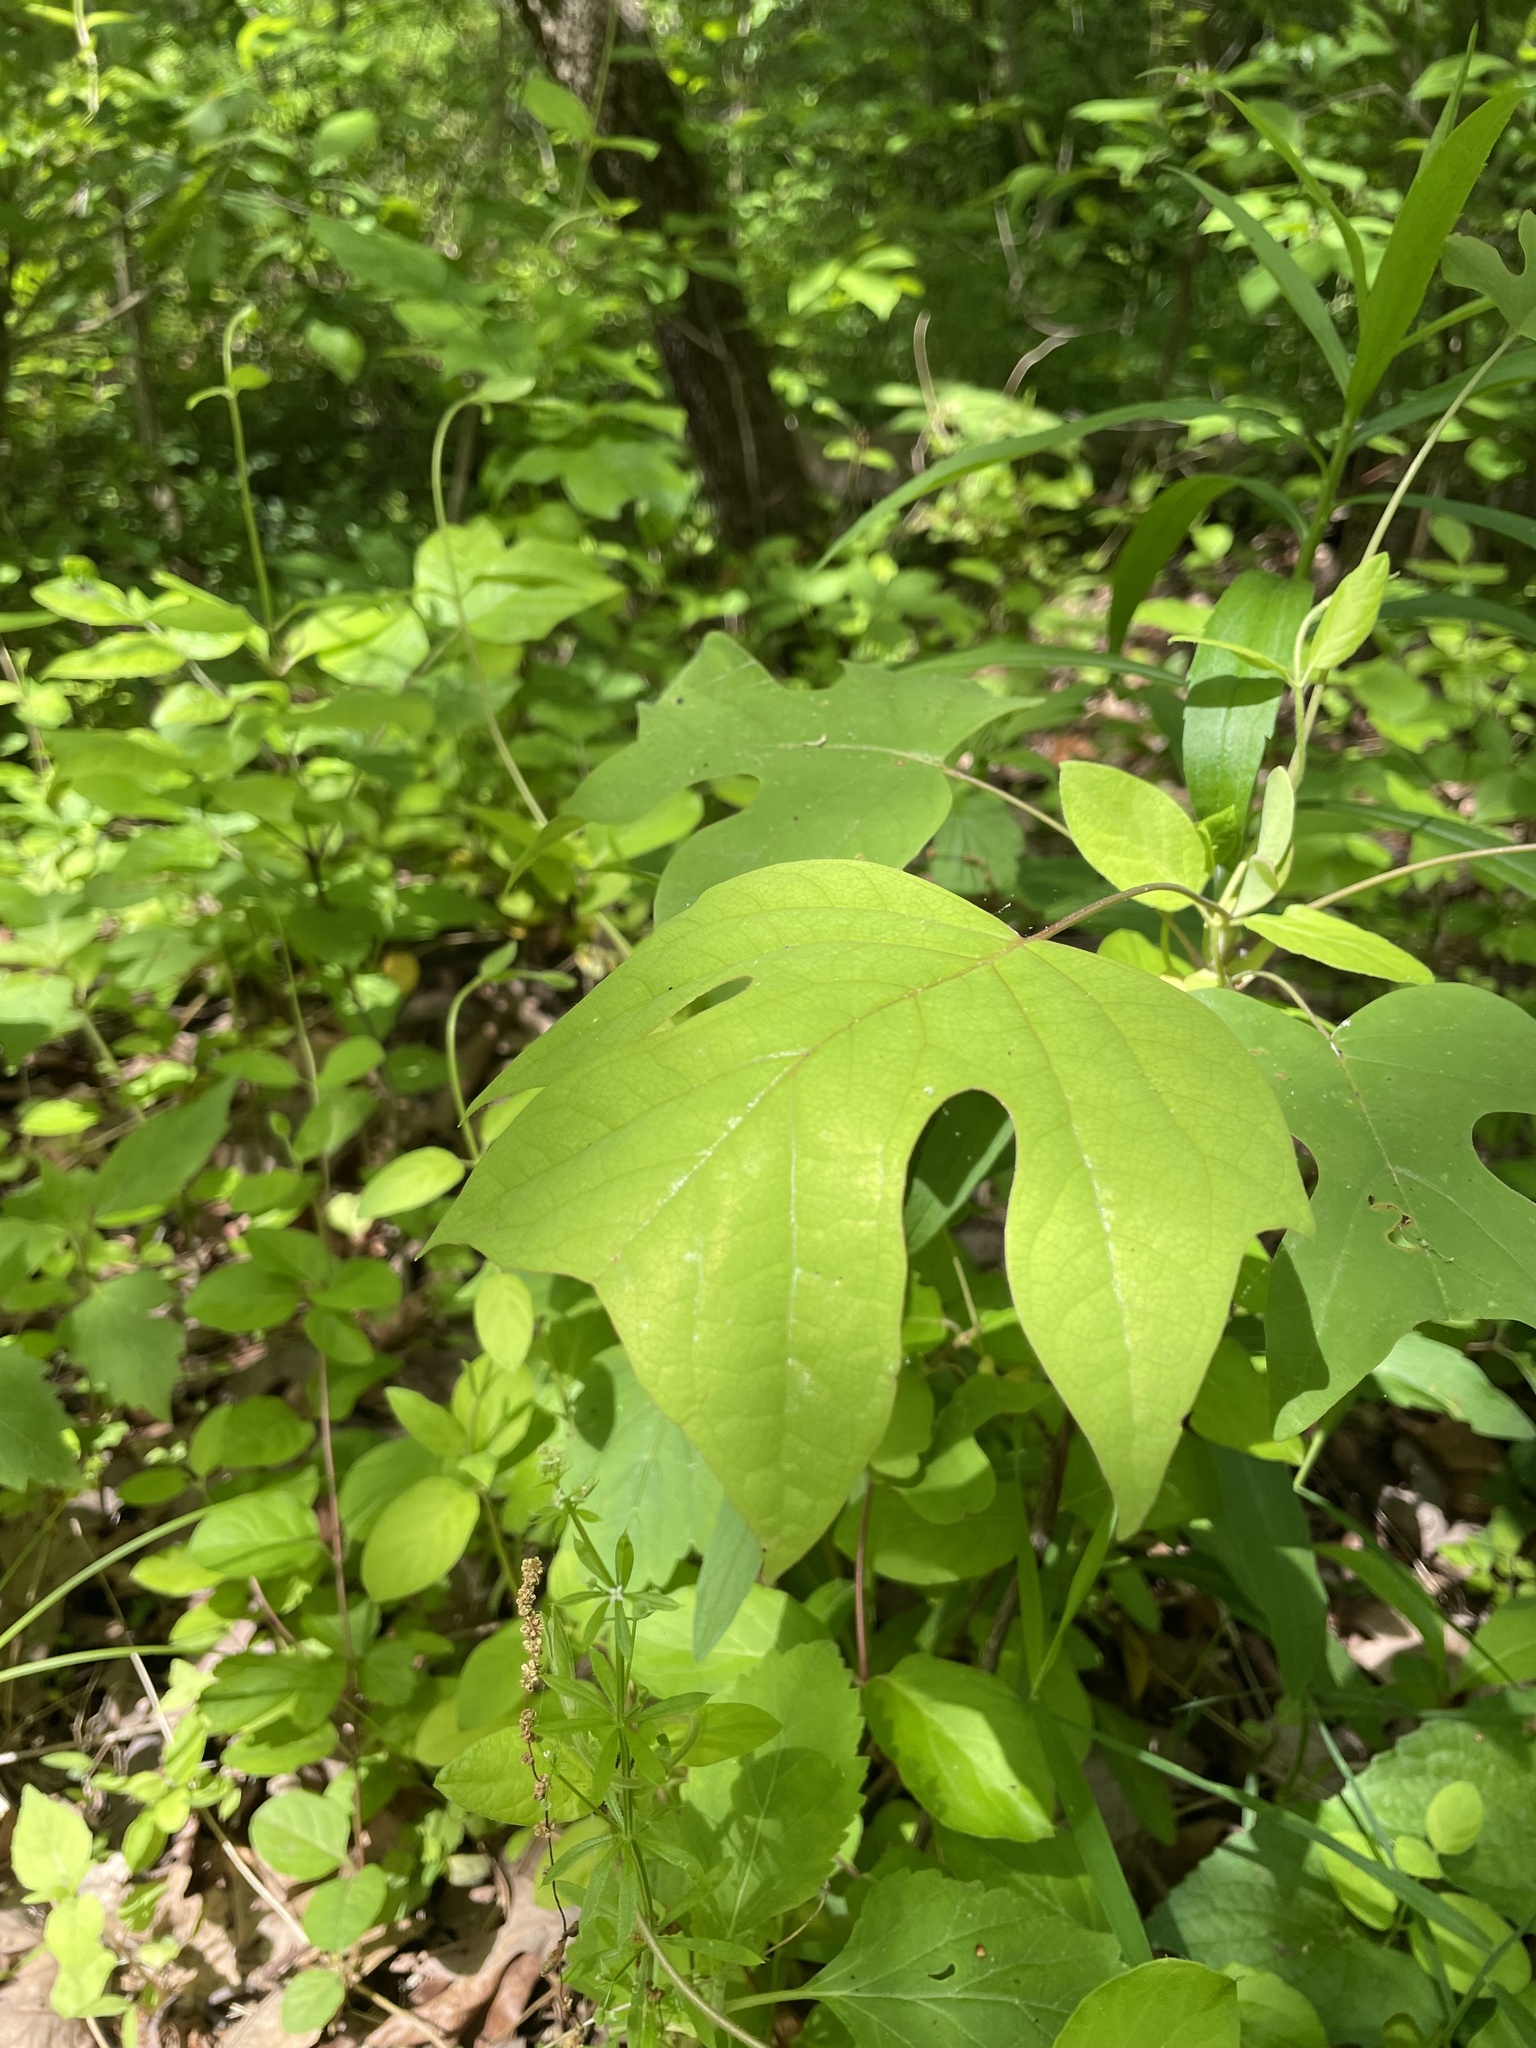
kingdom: Plantae
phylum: Tracheophyta
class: Magnoliopsida
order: Magnoliales
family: Magnoliaceae
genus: Liriodendron
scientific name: Liriodendron tulipifera
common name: Tulip tree
